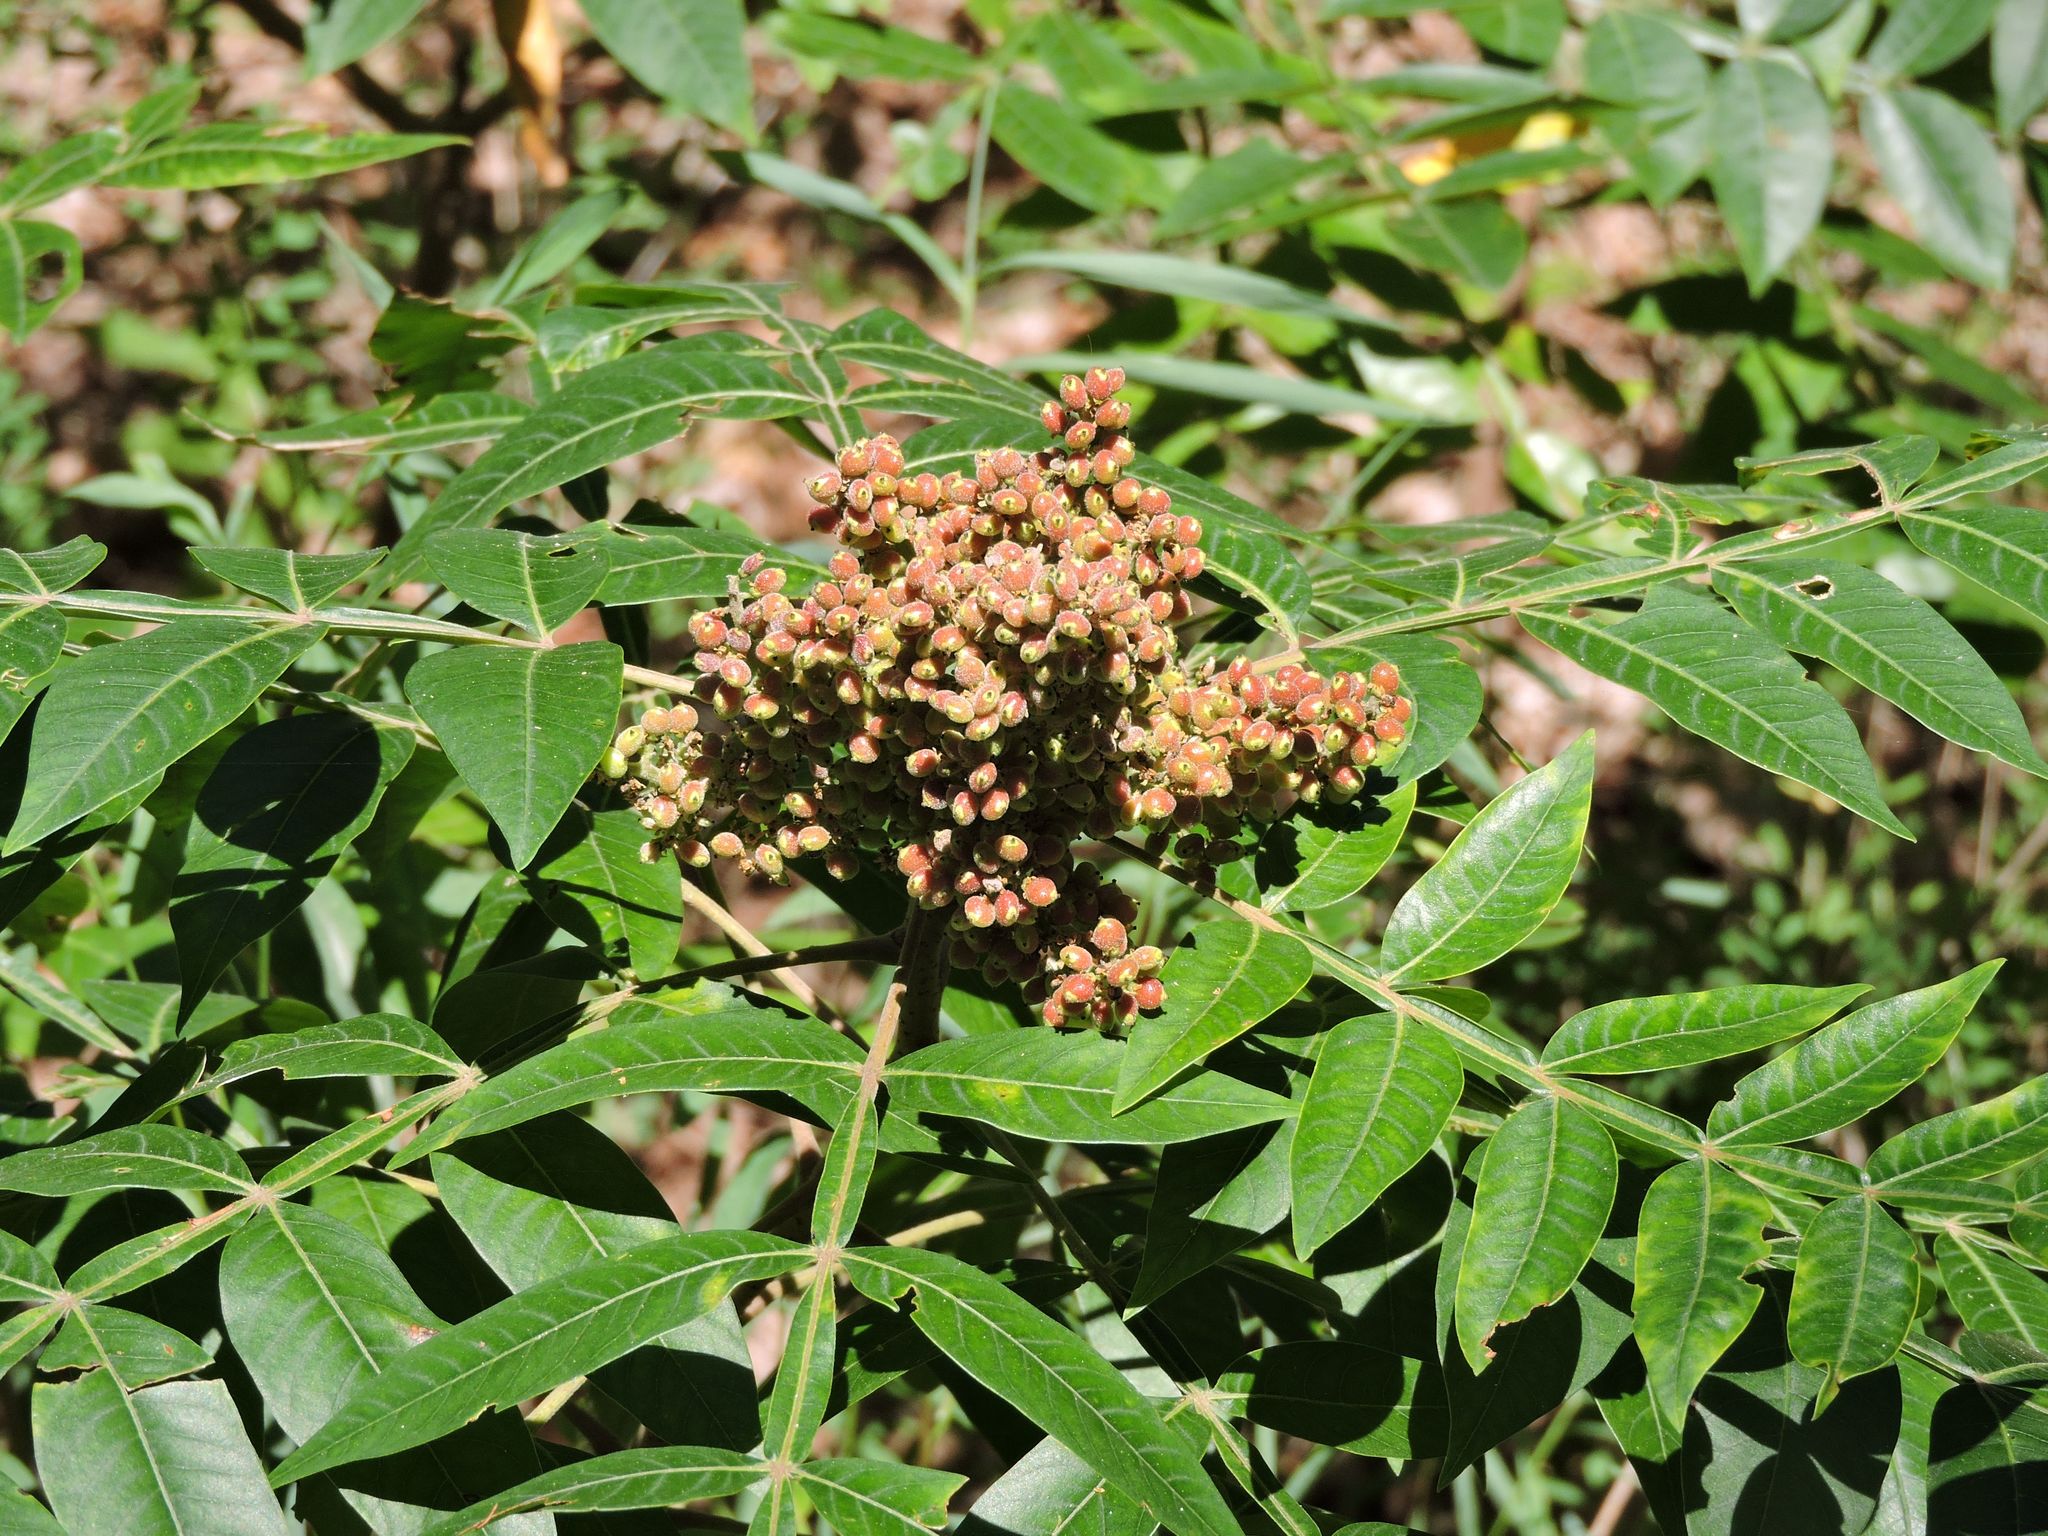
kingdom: Plantae
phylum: Tracheophyta
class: Magnoliopsida
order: Sapindales
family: Anacardiaceae
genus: Rhus
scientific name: Rhus copallina
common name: Shining sumac
